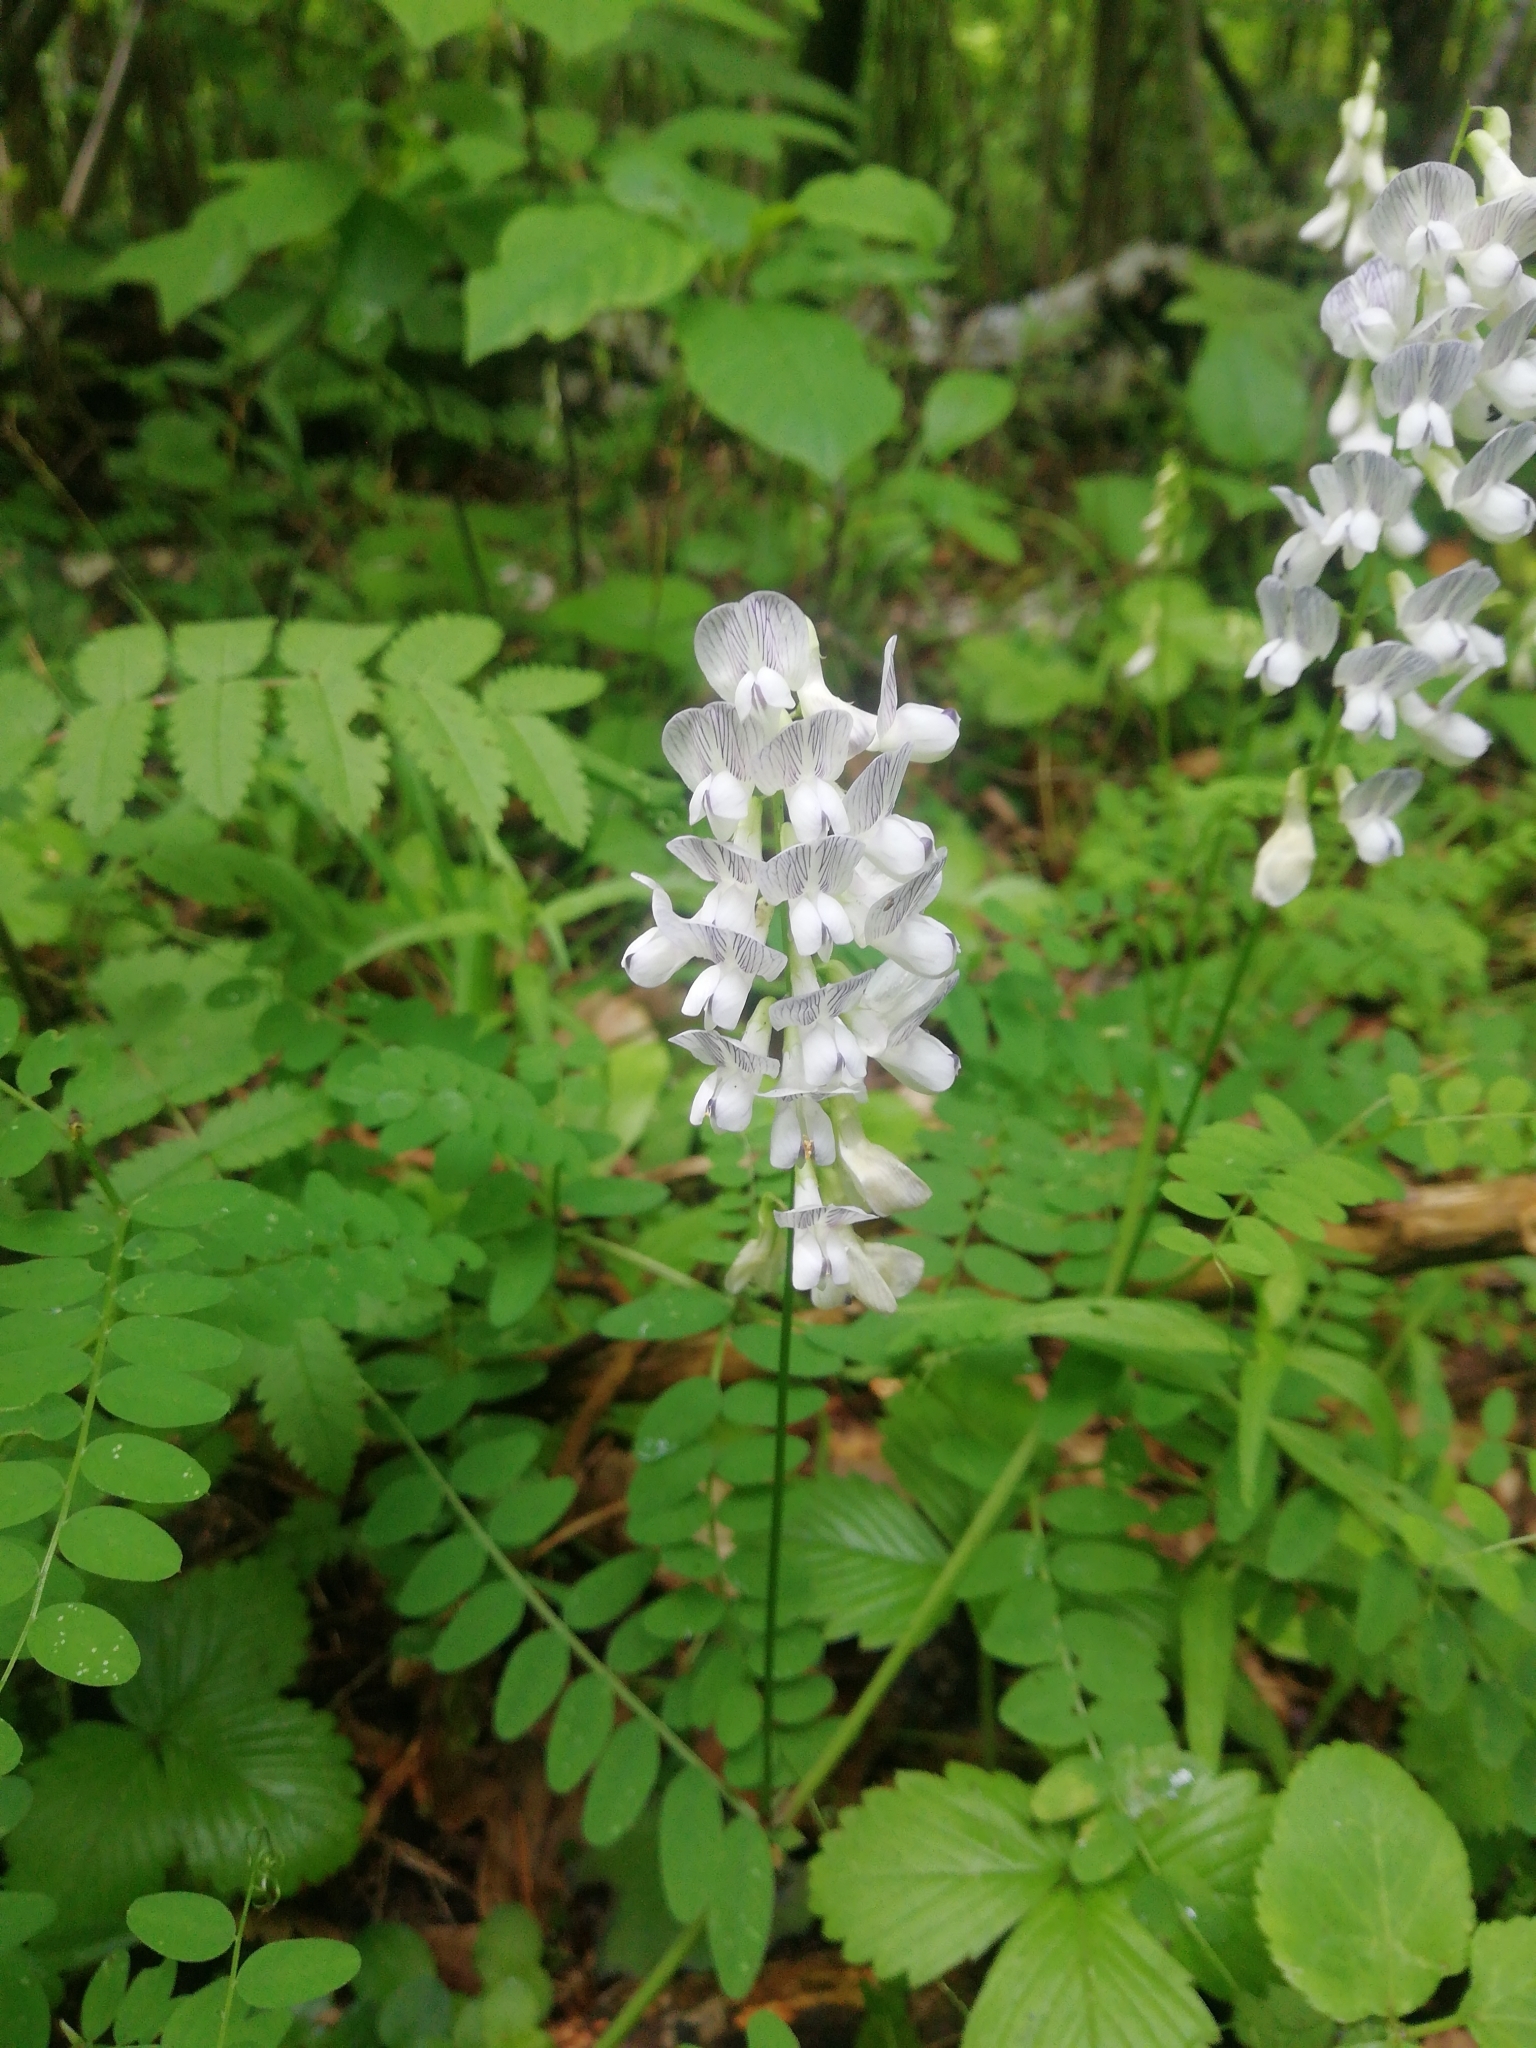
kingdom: Plantae
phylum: Tracheophyta
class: Magnoliopsida
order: Fabales
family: Fabaceae
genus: Vicia
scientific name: Vicia sylvatica
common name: Wood vetch
